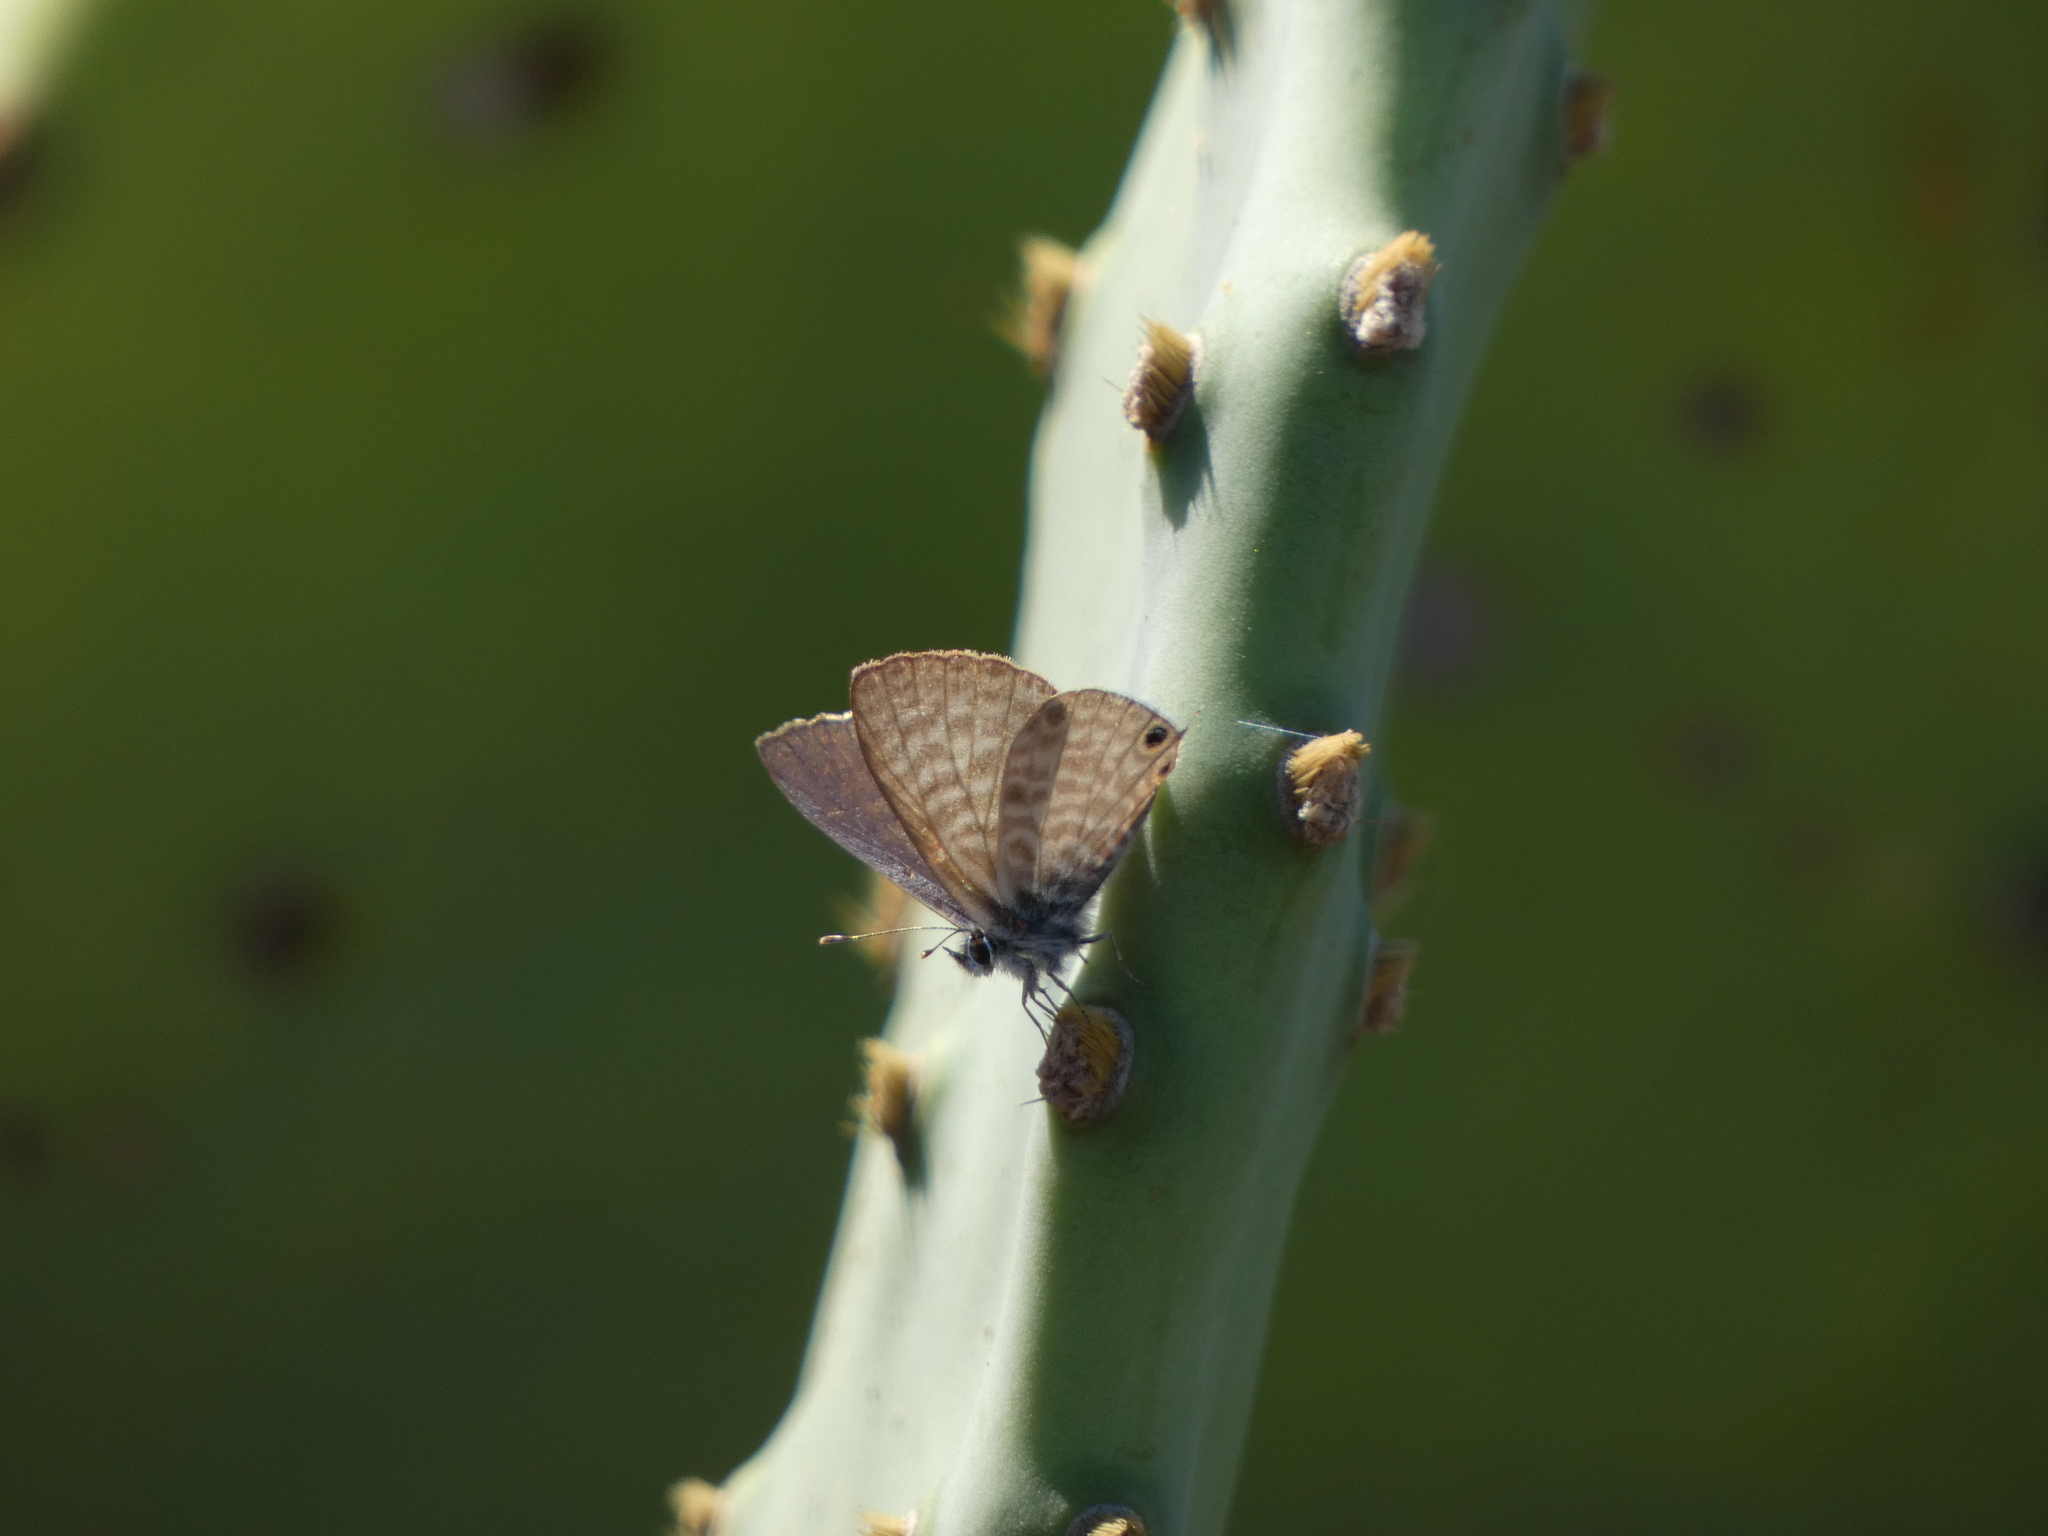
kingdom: Animalia
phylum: Arthropoda
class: Insecta
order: Lepidoptera
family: Lycaenidae
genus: Leptotes
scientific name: Leptotes pirithous
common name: Lang's short-tailed blue
